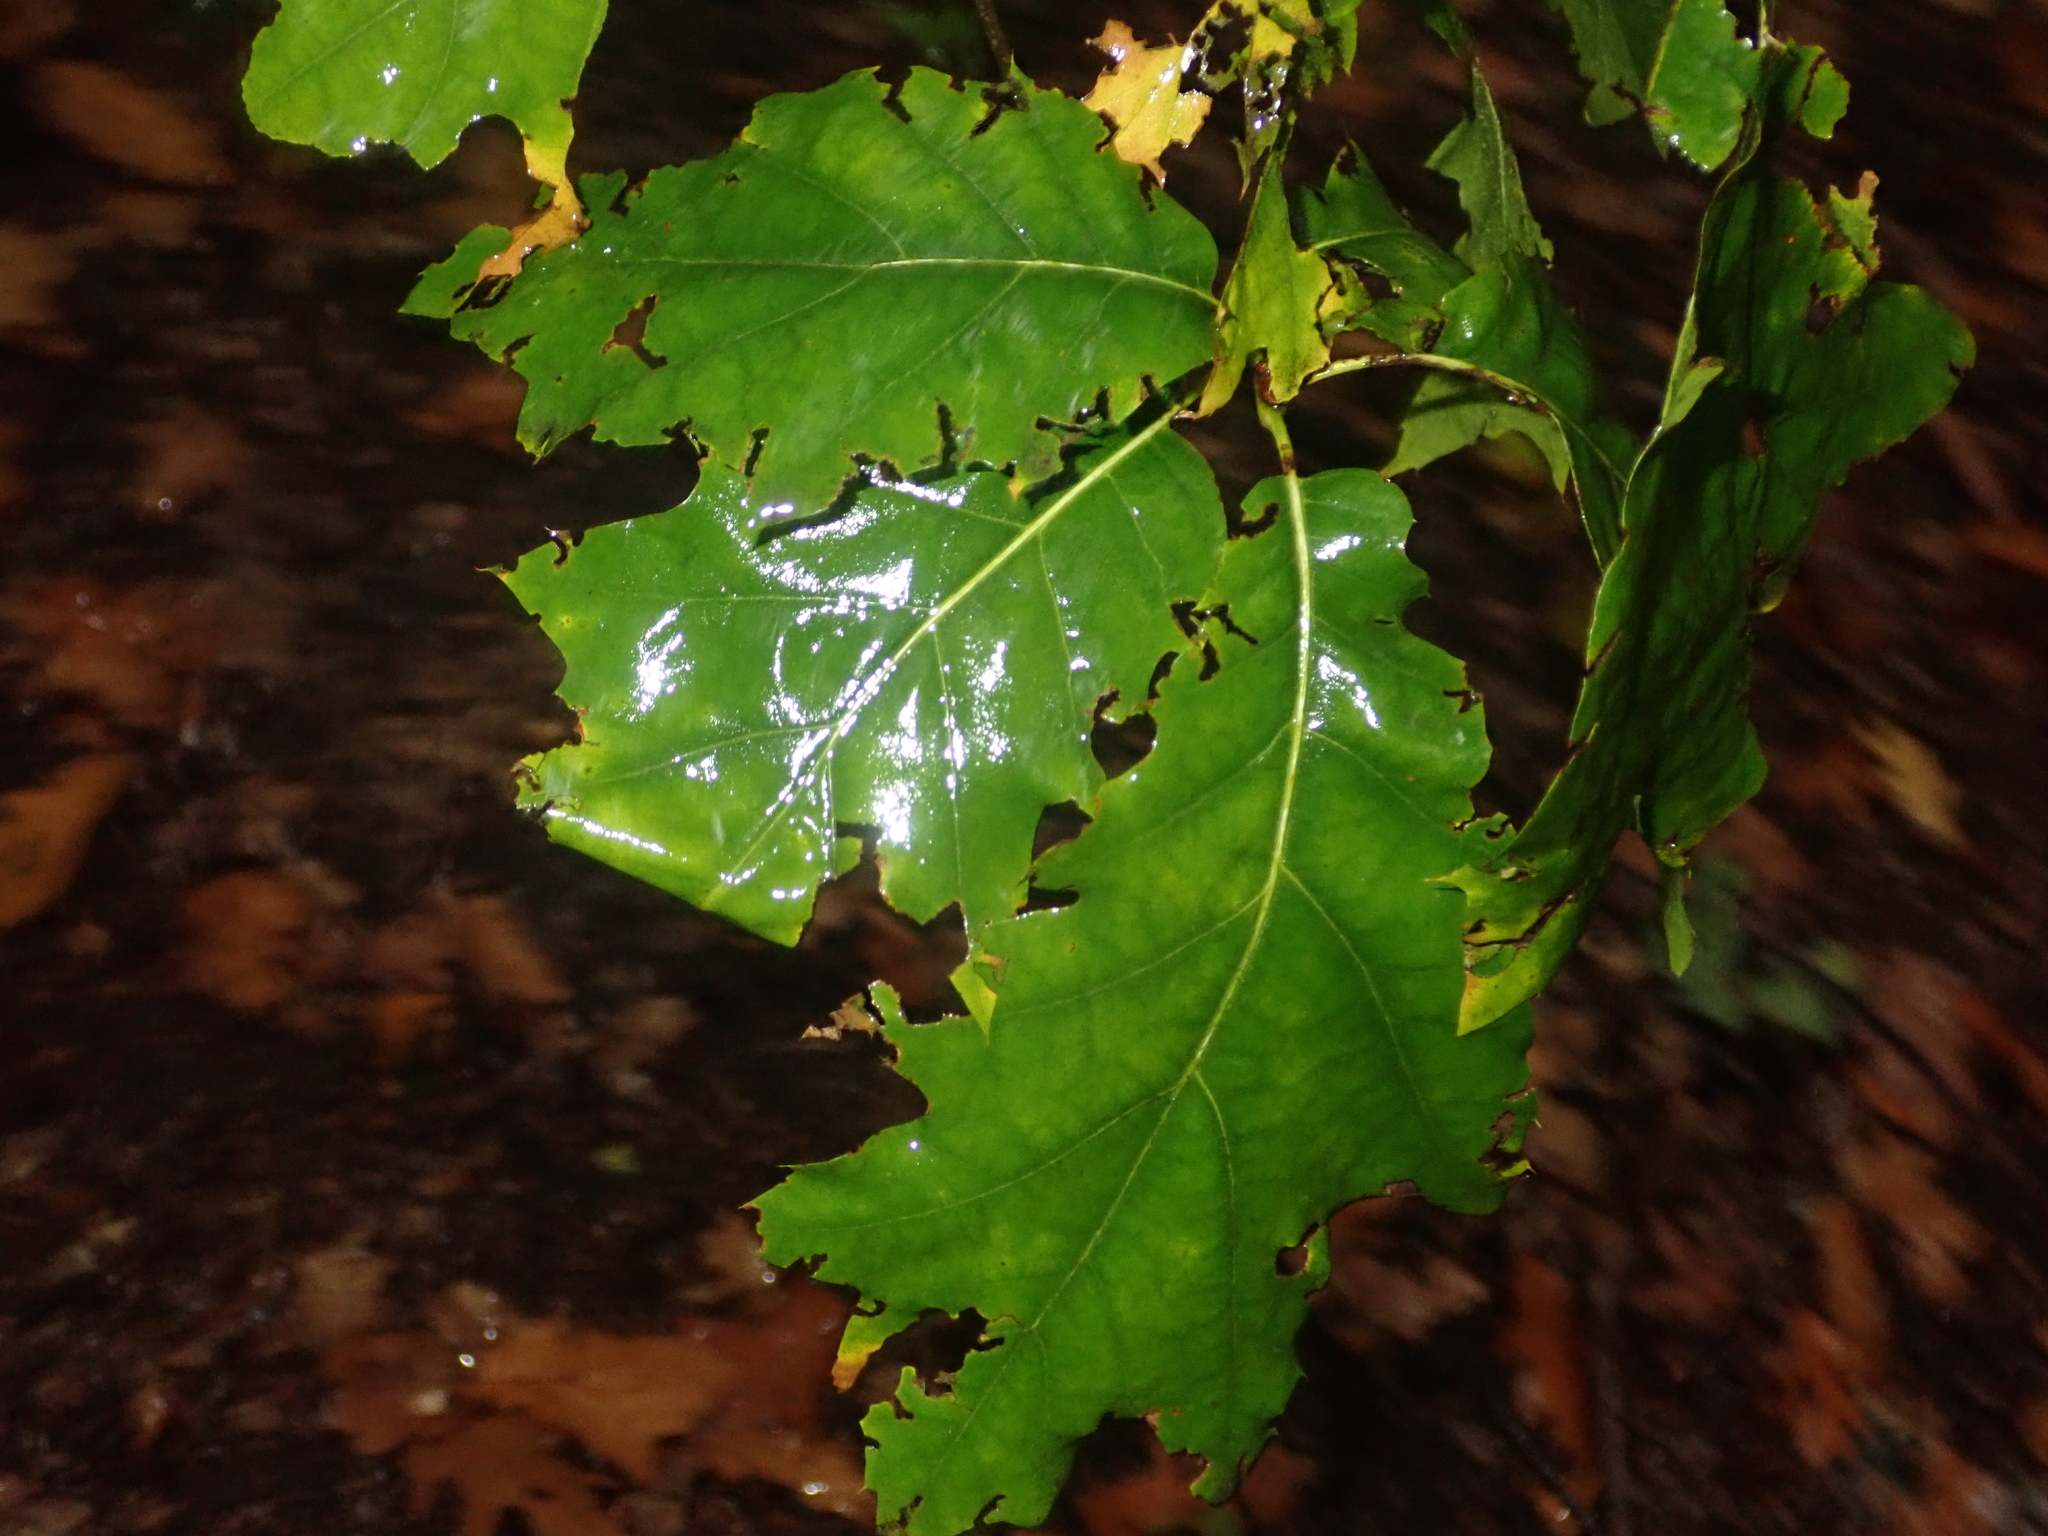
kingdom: Plantae
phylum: Tracheophyta
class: Magnoliopsida
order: Fagales
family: Fagaceae
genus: Quercus
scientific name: Quercus rubra
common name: Red oak
